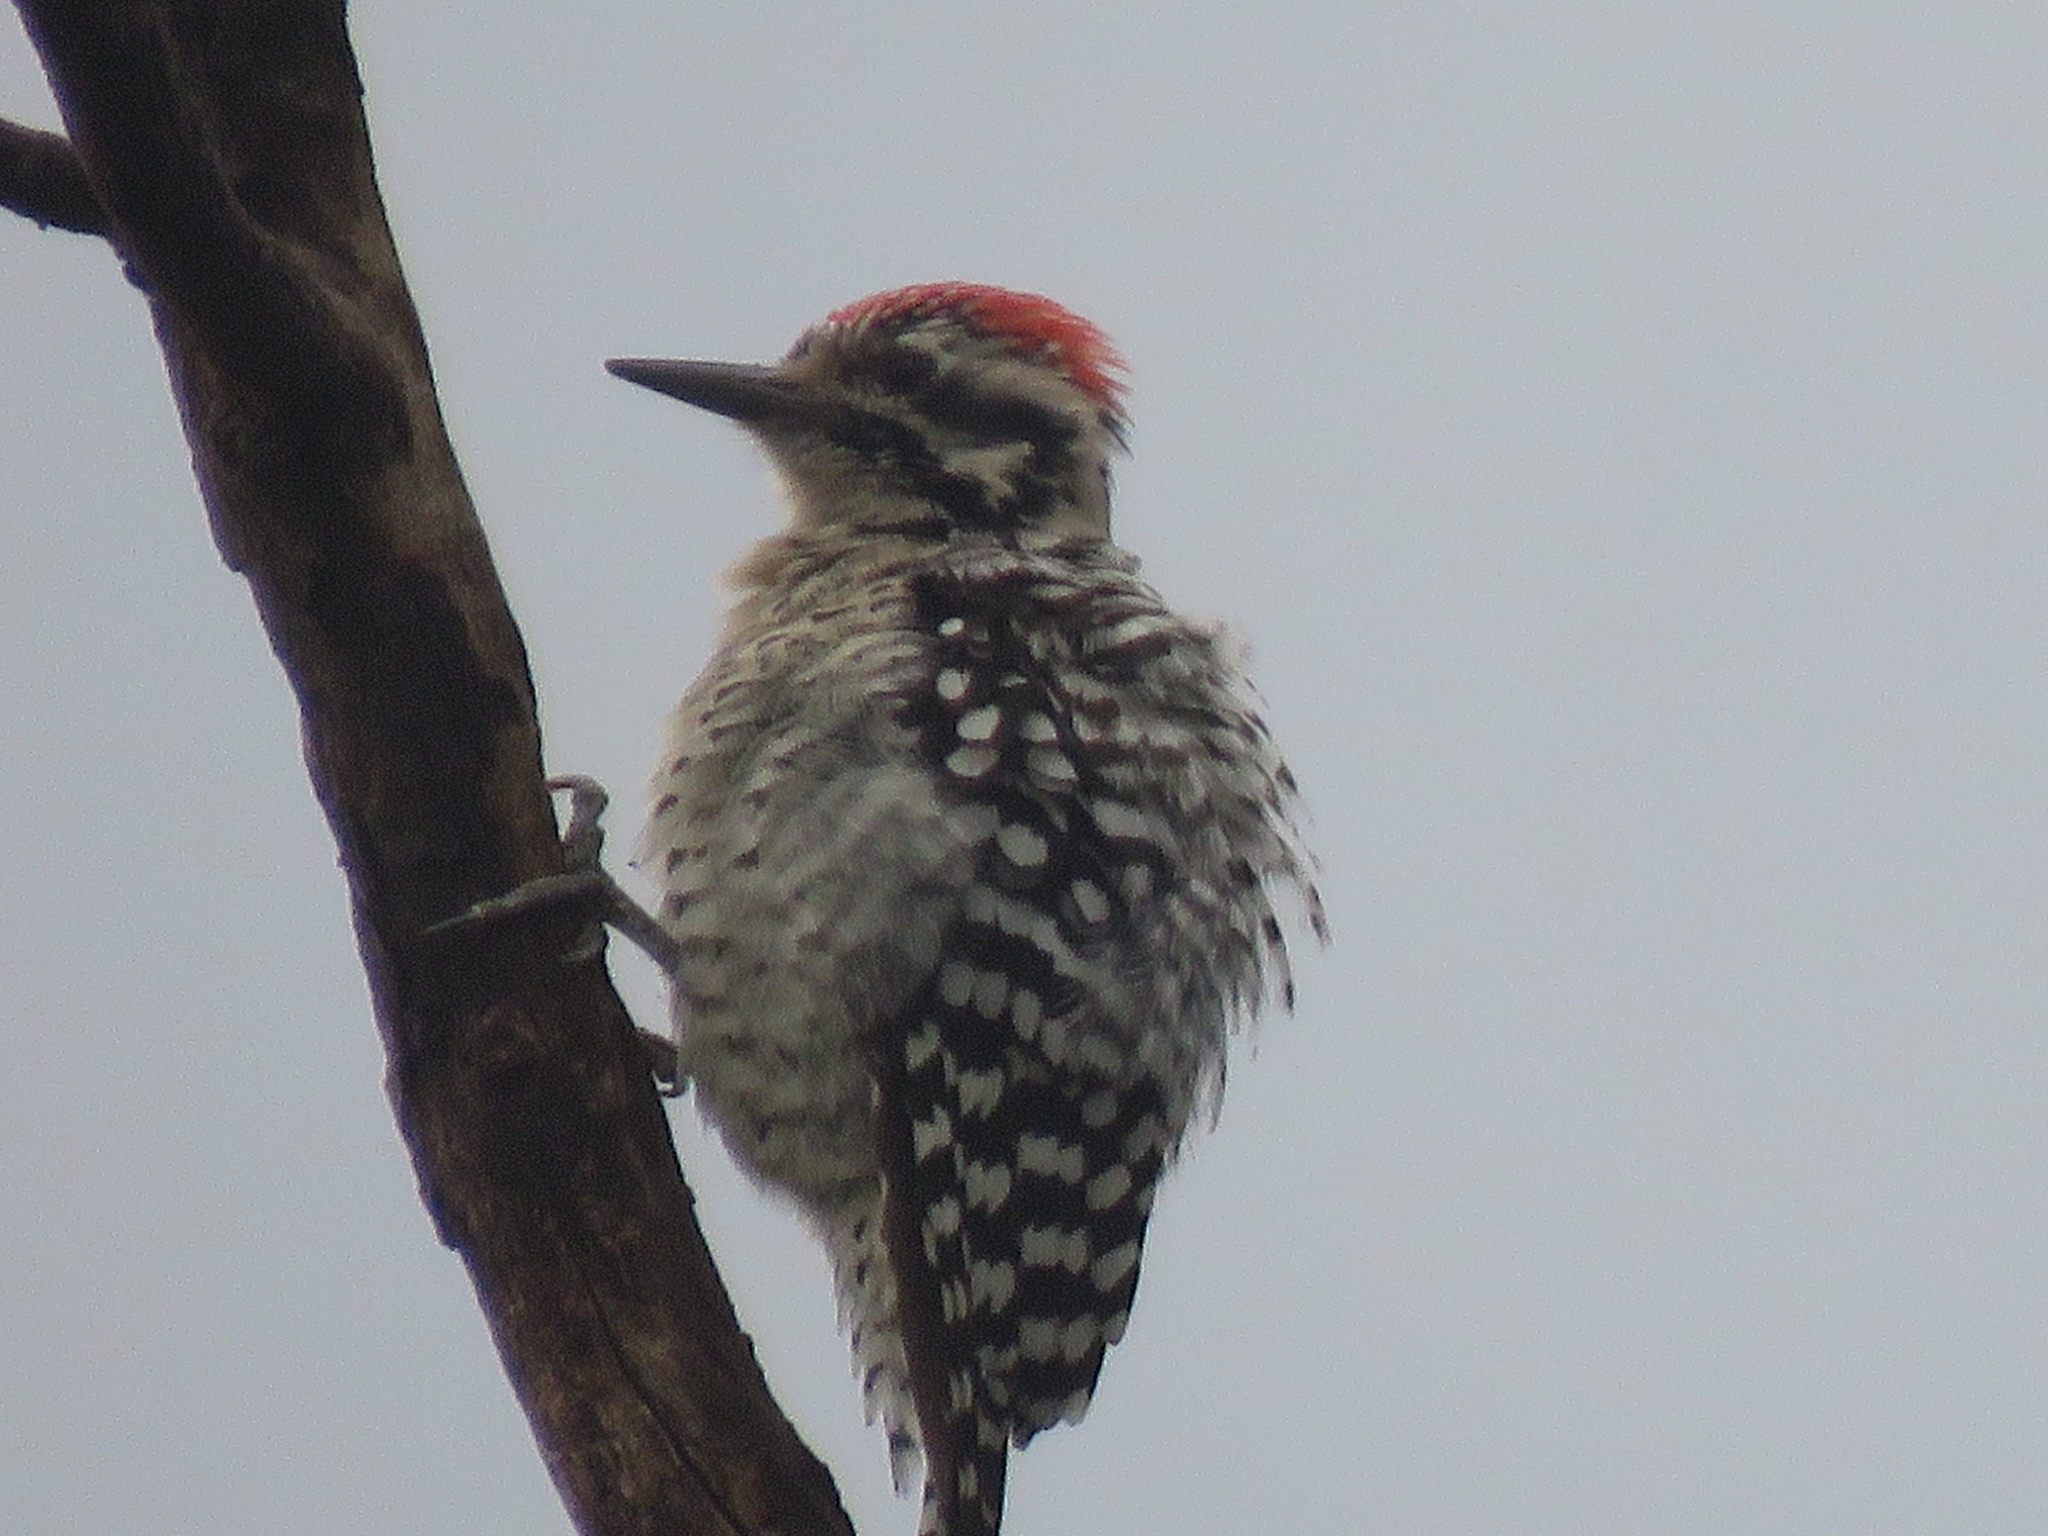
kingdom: Animalia
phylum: Chordata
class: Aves
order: Piciformes
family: Picidae
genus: Dryobates
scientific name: Dryobates scalaris
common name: Ladder-backed woodpecker
